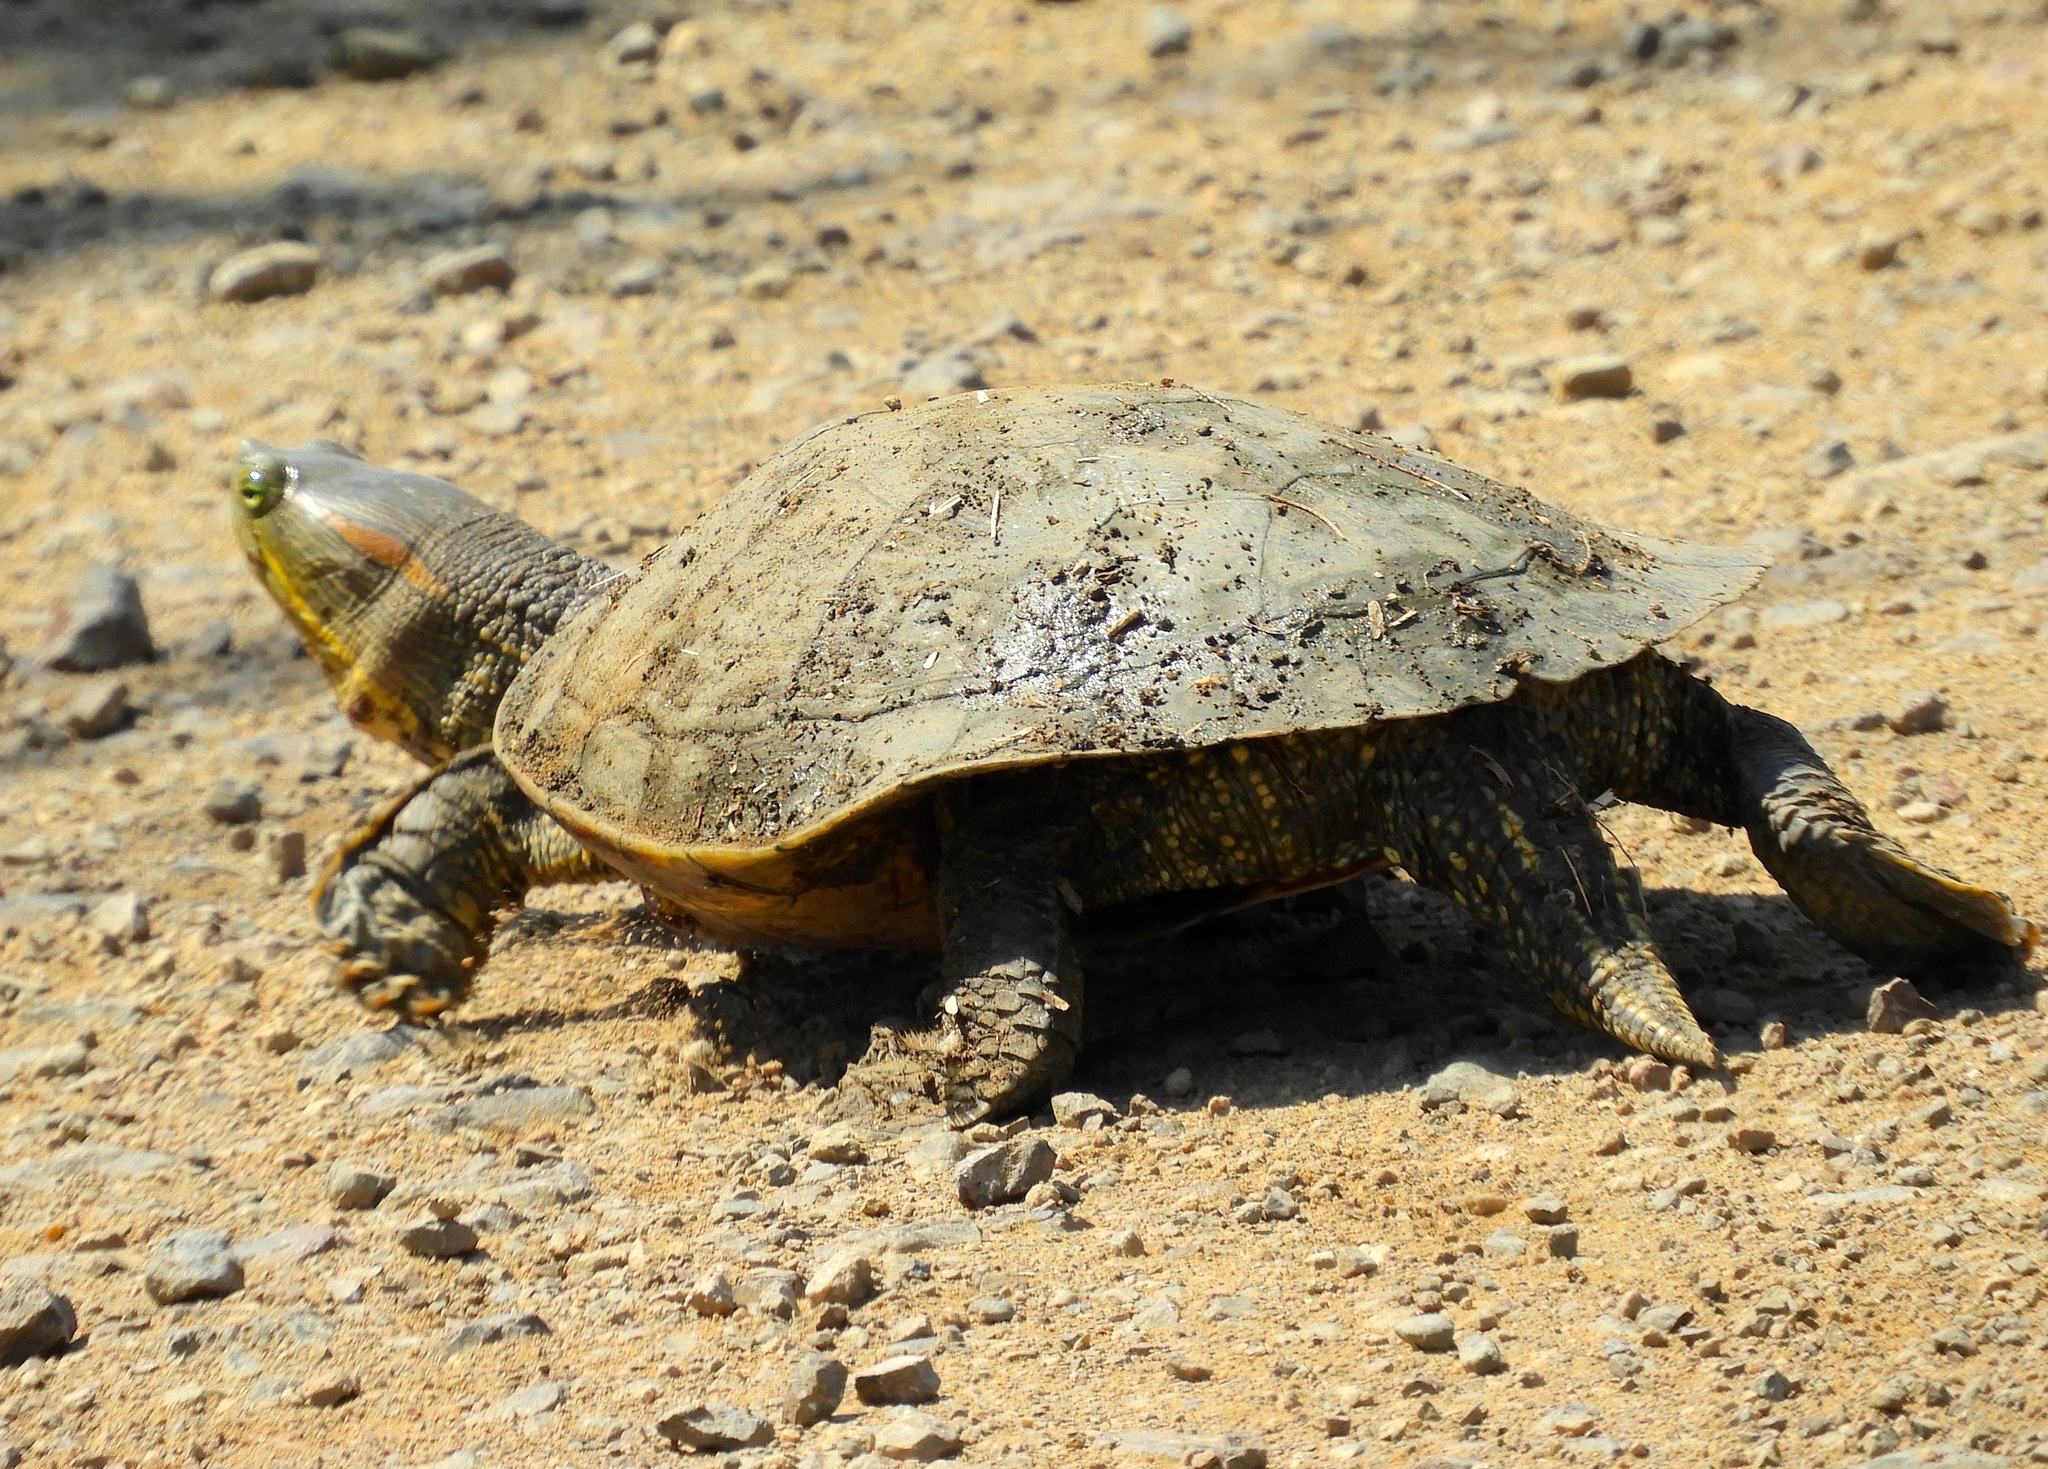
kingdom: Animalia
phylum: Chordata
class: Testudines
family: Emydidae
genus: Trachemys
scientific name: Trachemys ornata
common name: Ornate slider
